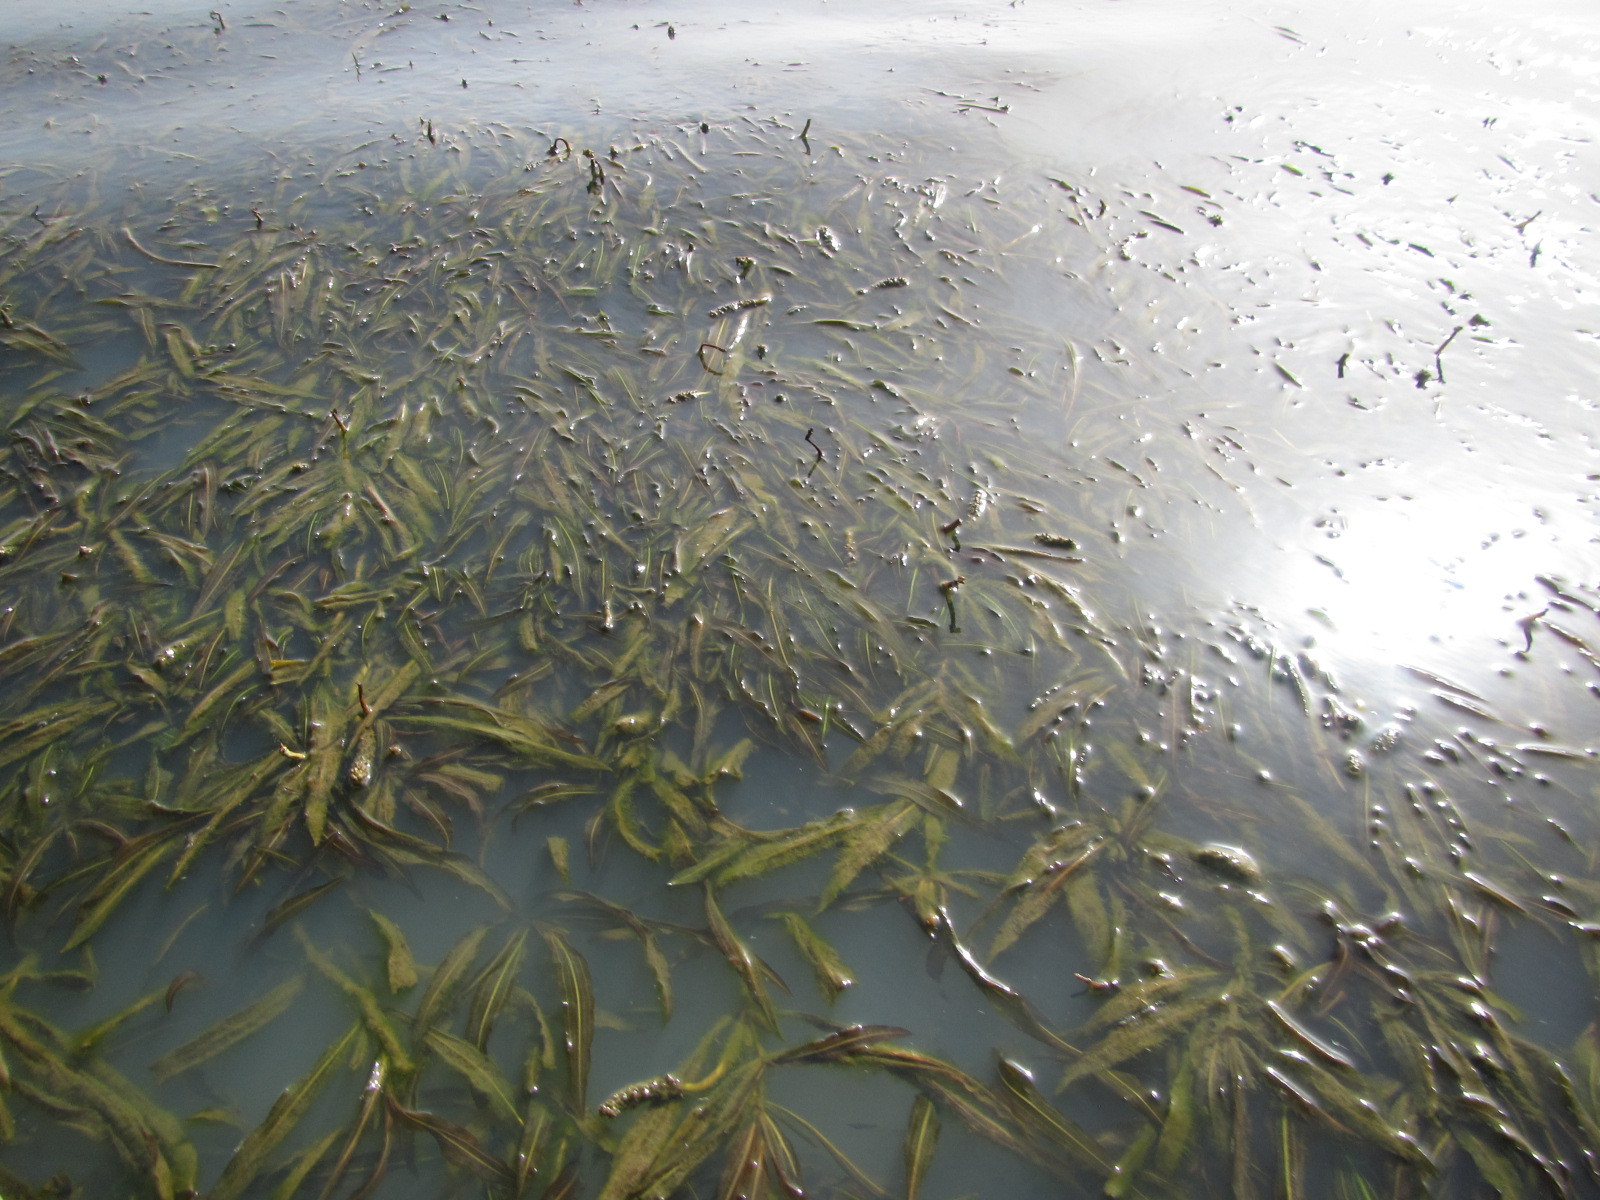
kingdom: Plantae
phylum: Tracheophyta
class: Liliopsida
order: Alismatales
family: Potamogetonaceae
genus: Potamogeton
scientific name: Potamogeton schweinfurthii
